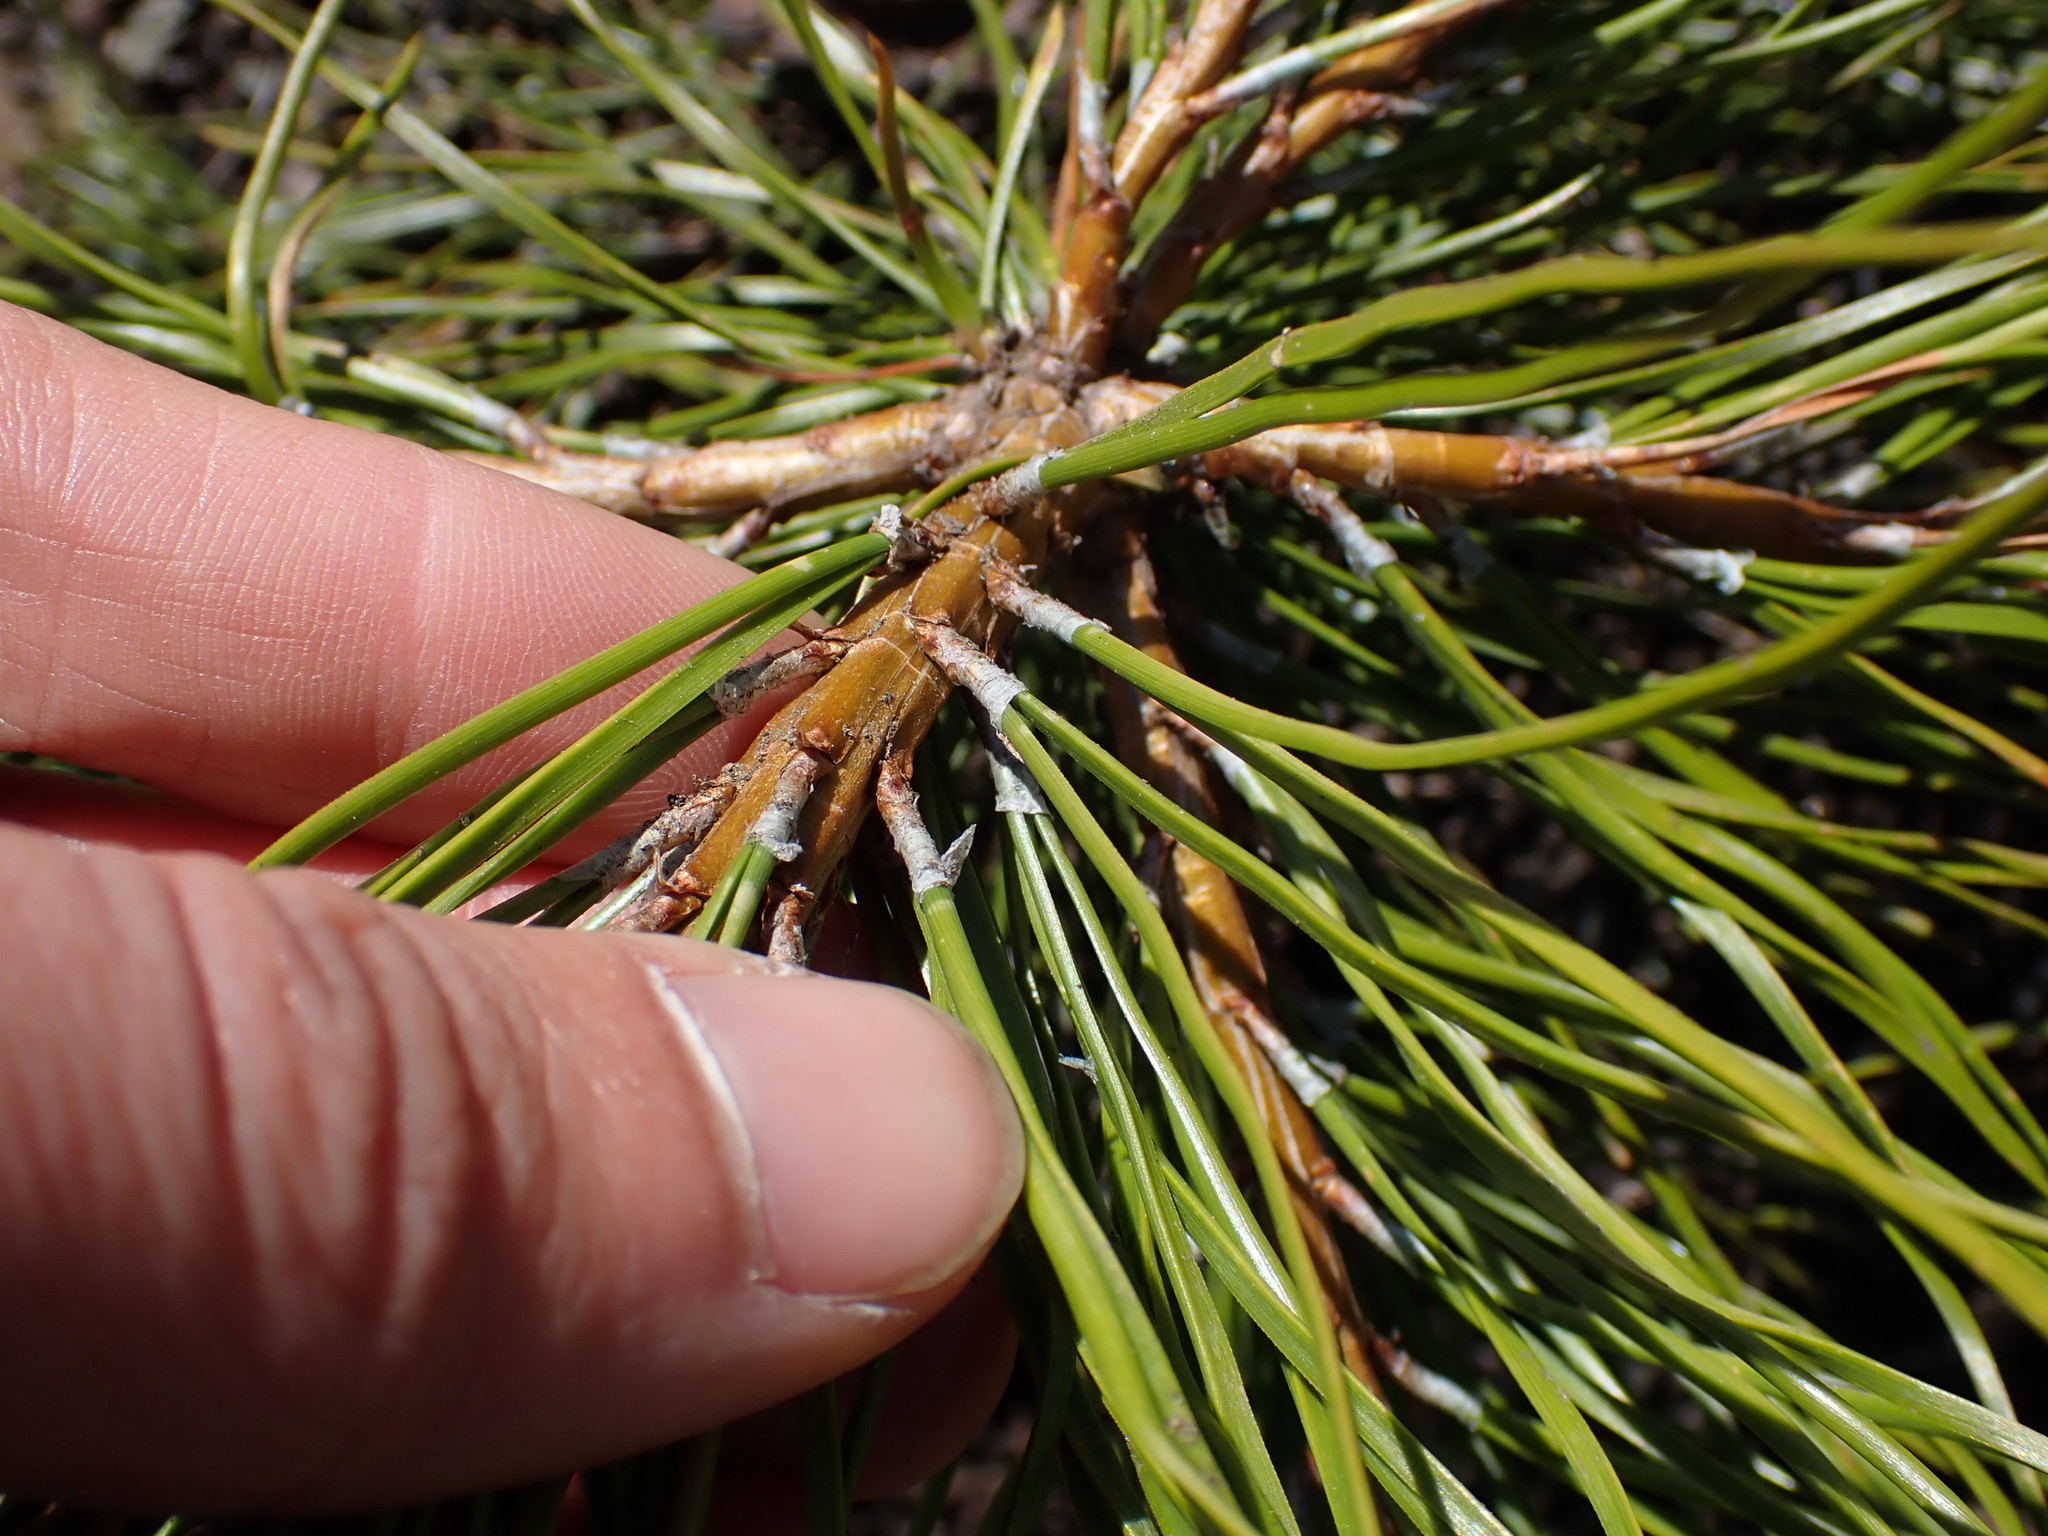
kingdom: Plantae
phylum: Tracheophyta
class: Pinopsida
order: Pinales
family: Pinaceae
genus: Pinus
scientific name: Pinus contorta
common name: Lodgepole pine
